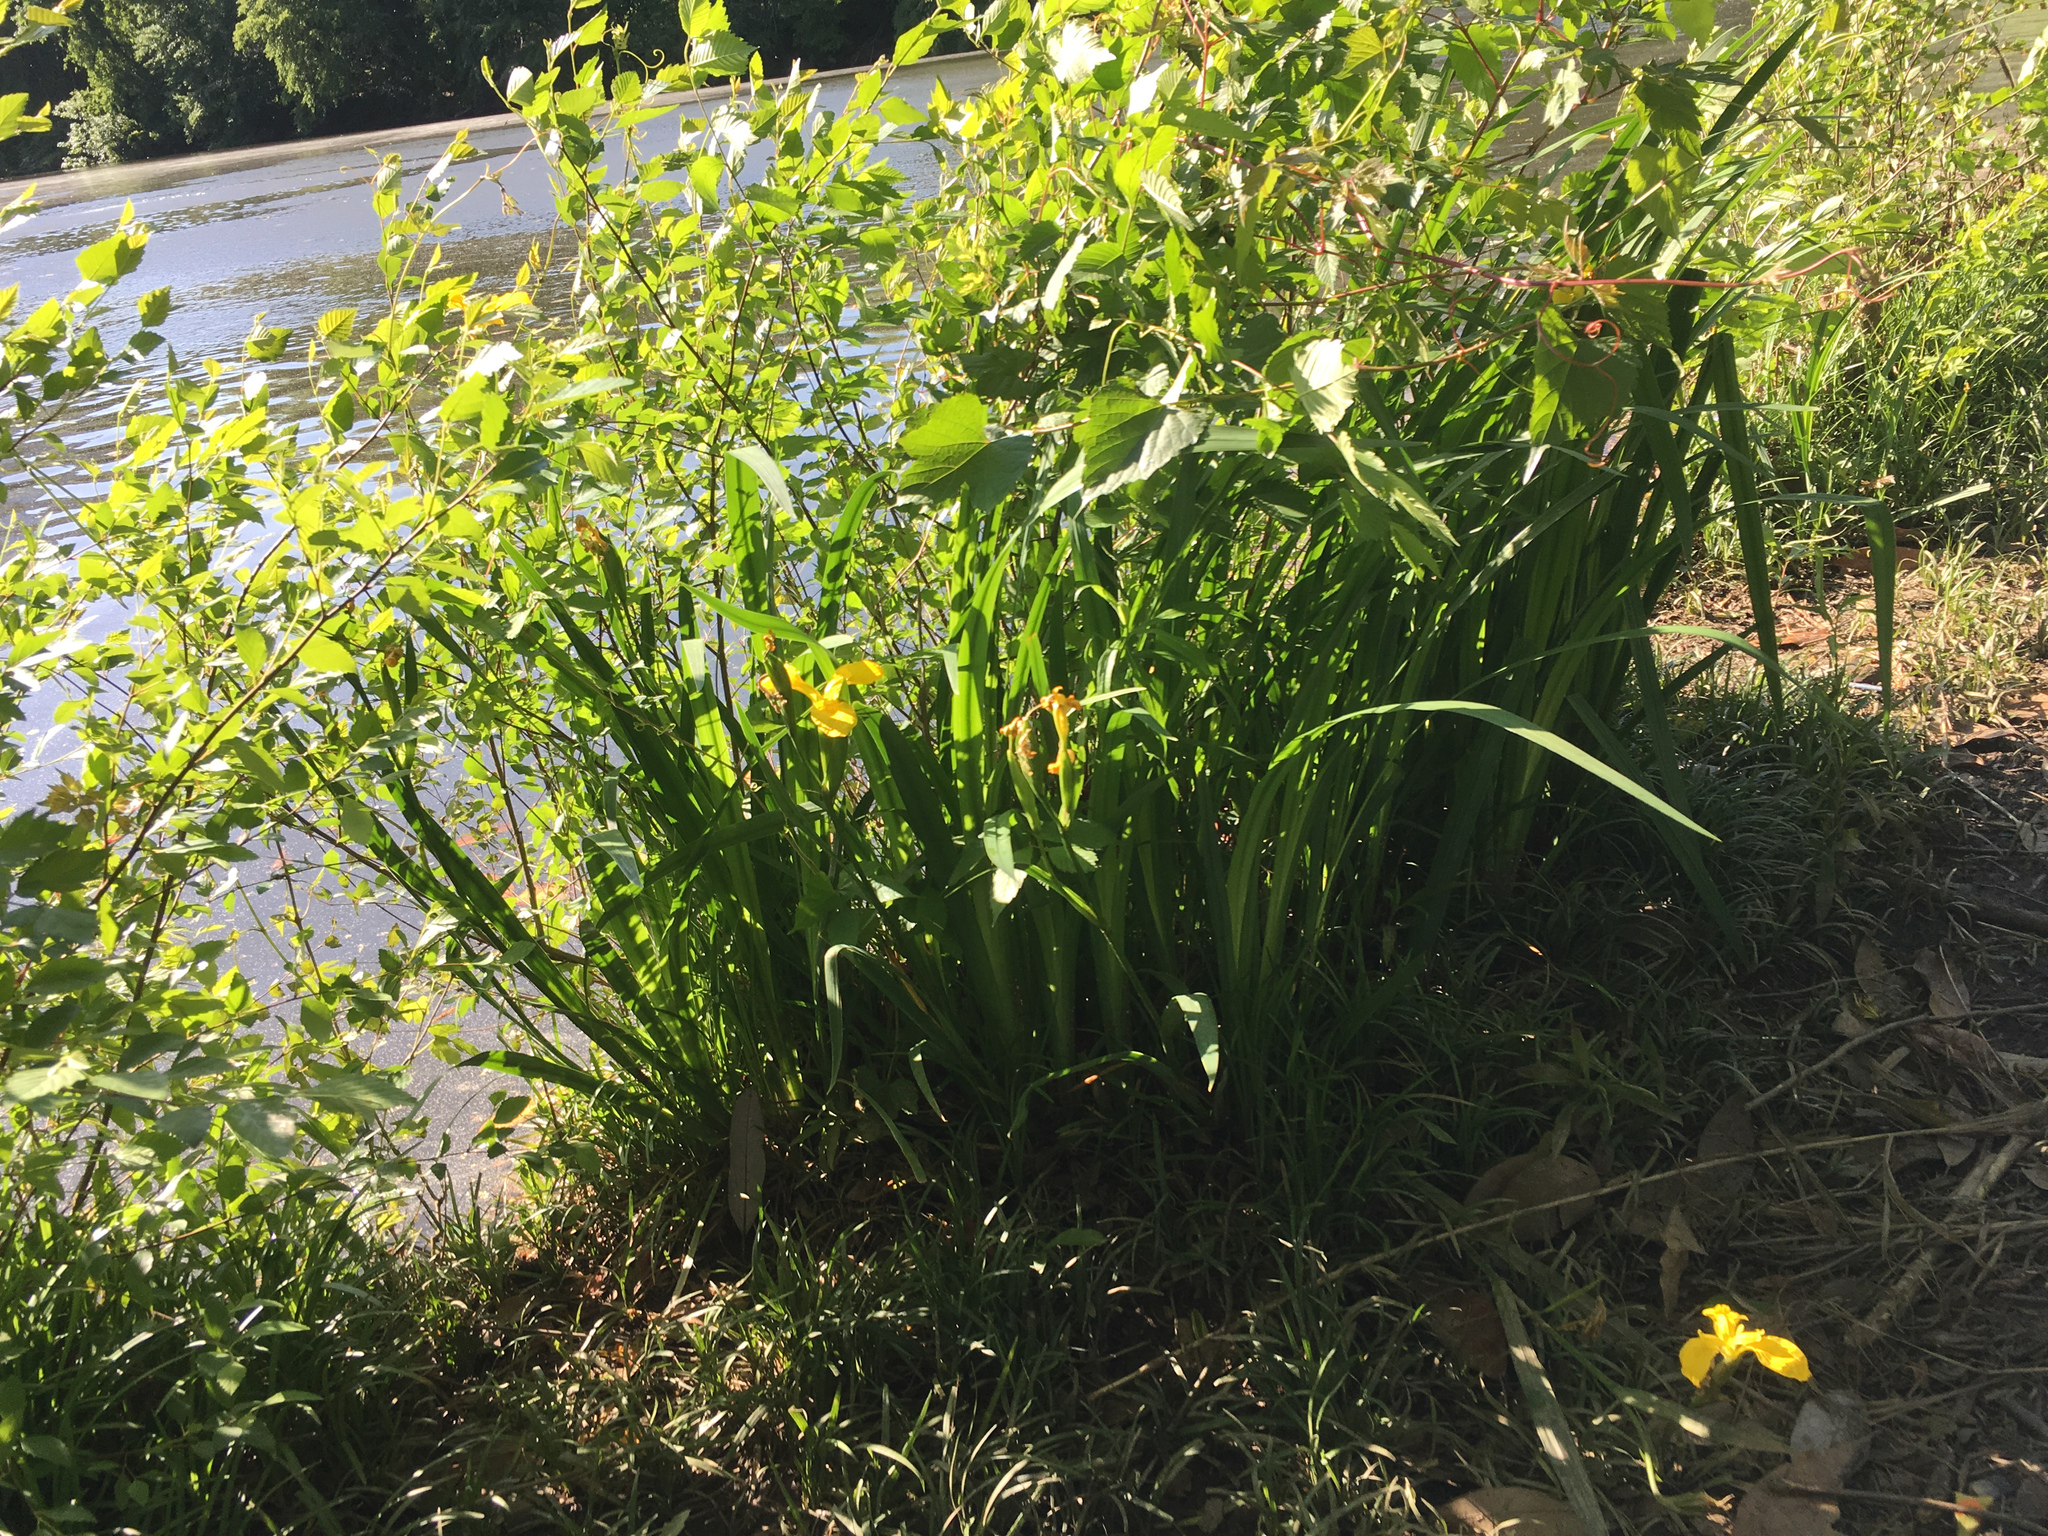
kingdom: Plantae
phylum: Tracheophyta
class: Liliopsida
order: Asparagales
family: Iridaceae
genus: Iris
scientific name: Iris pseudacorus
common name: Yellow flag
